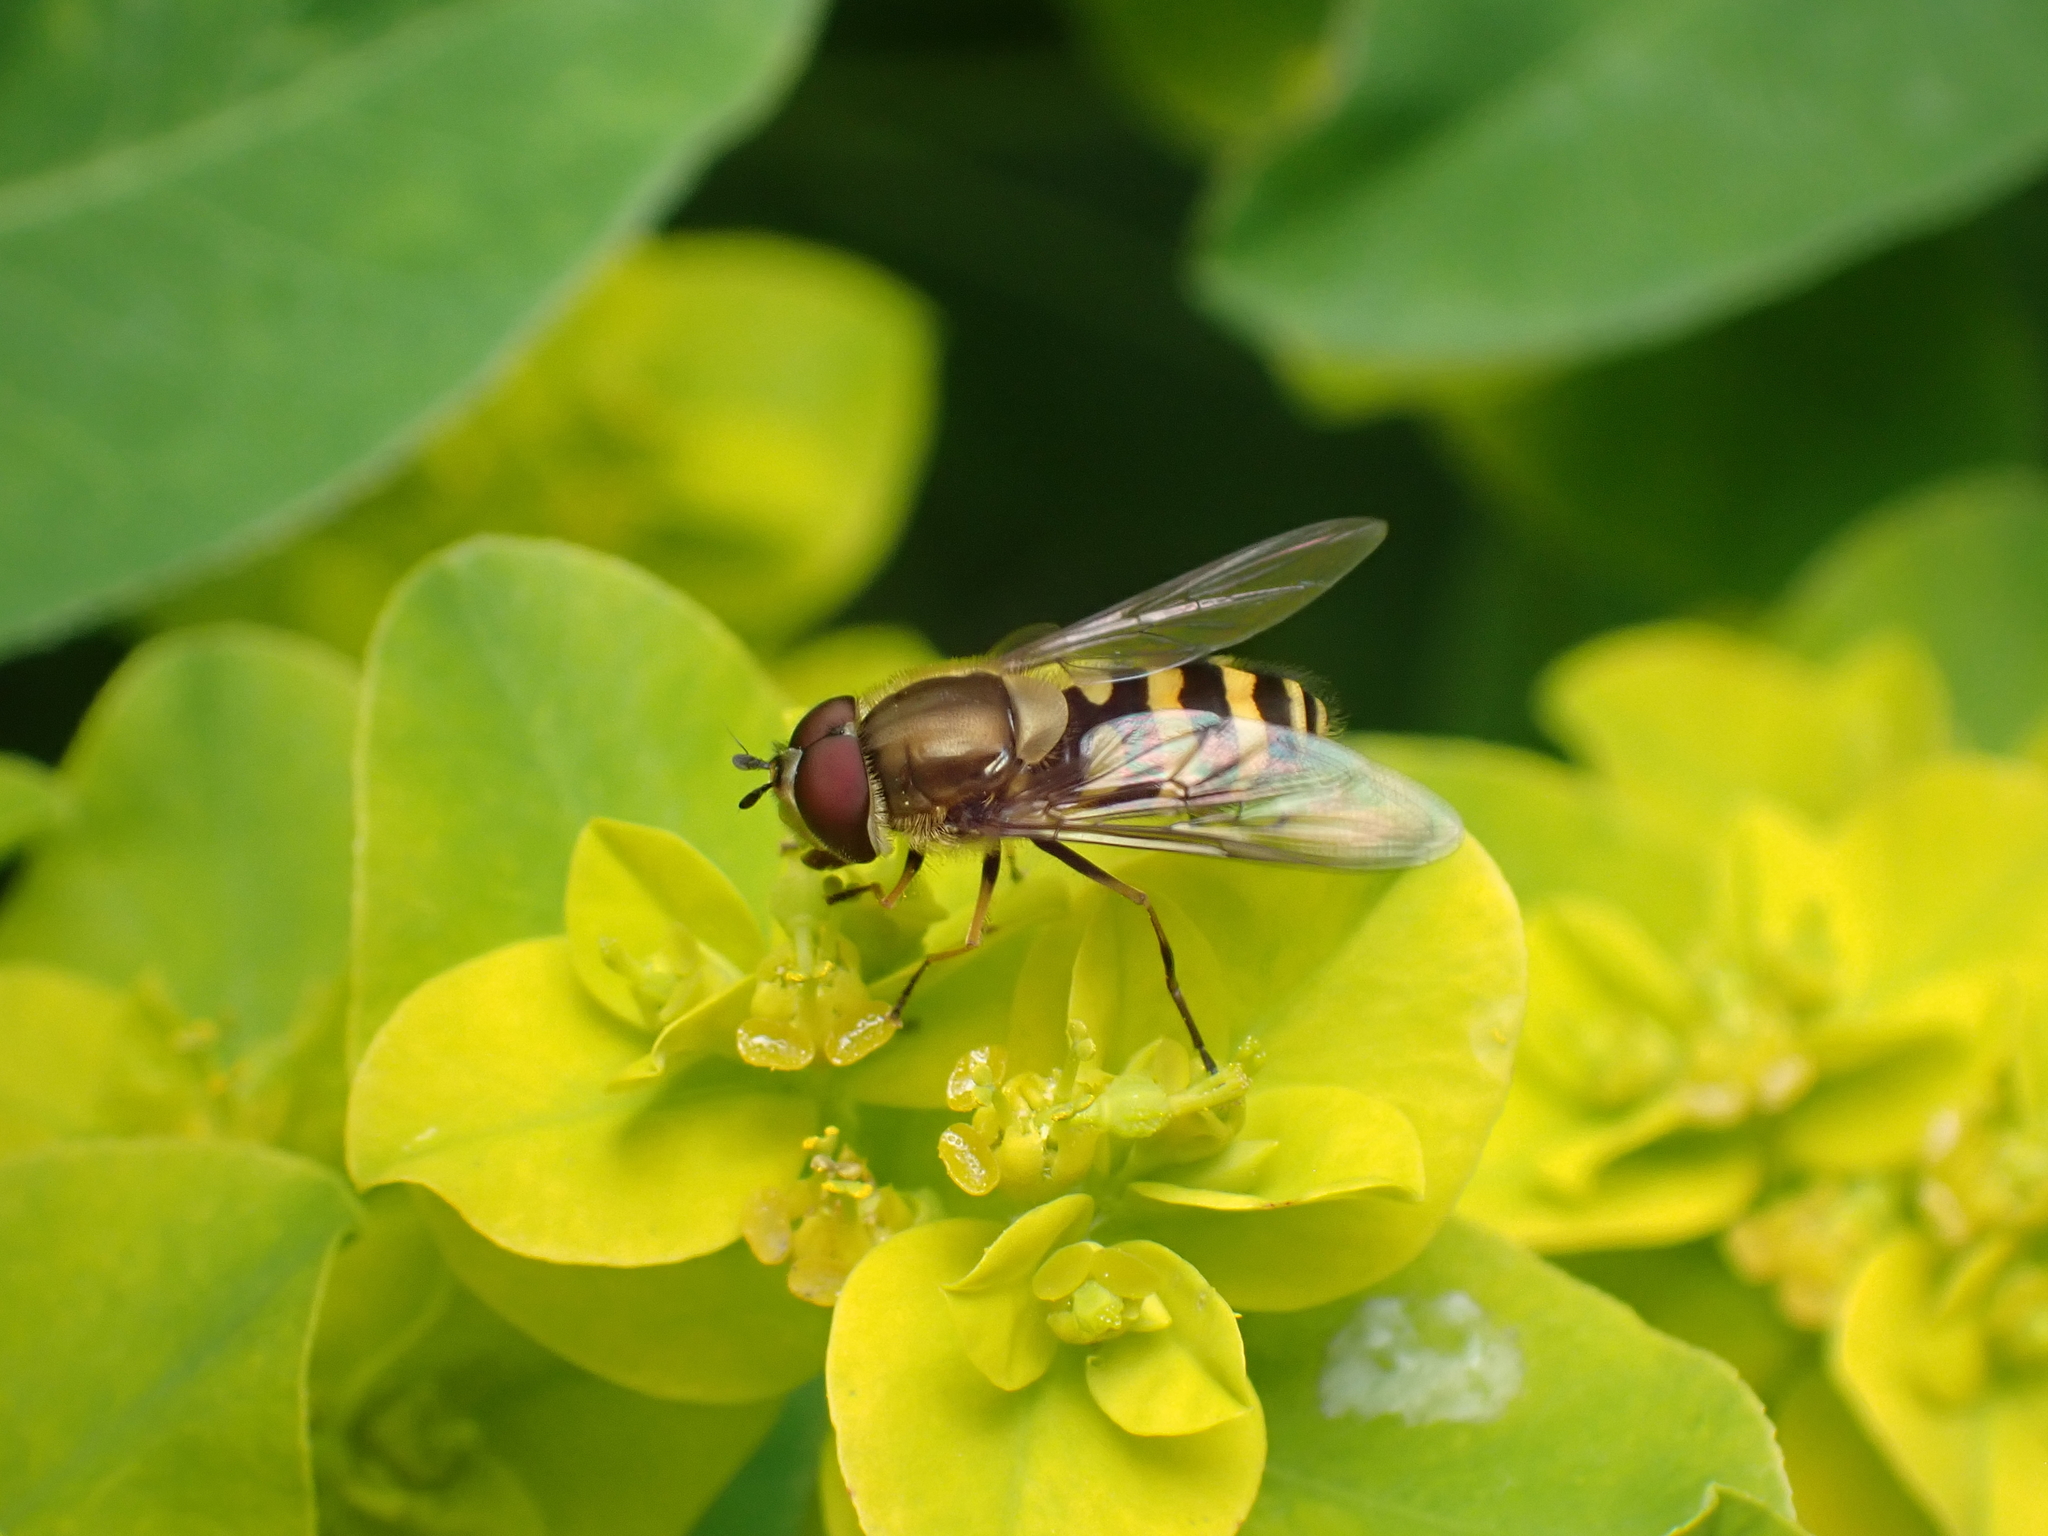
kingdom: Animalia
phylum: Arthropoda
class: Insecta
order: Diptera
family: Syrphidae
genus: Syrphus
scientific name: Syrphus
